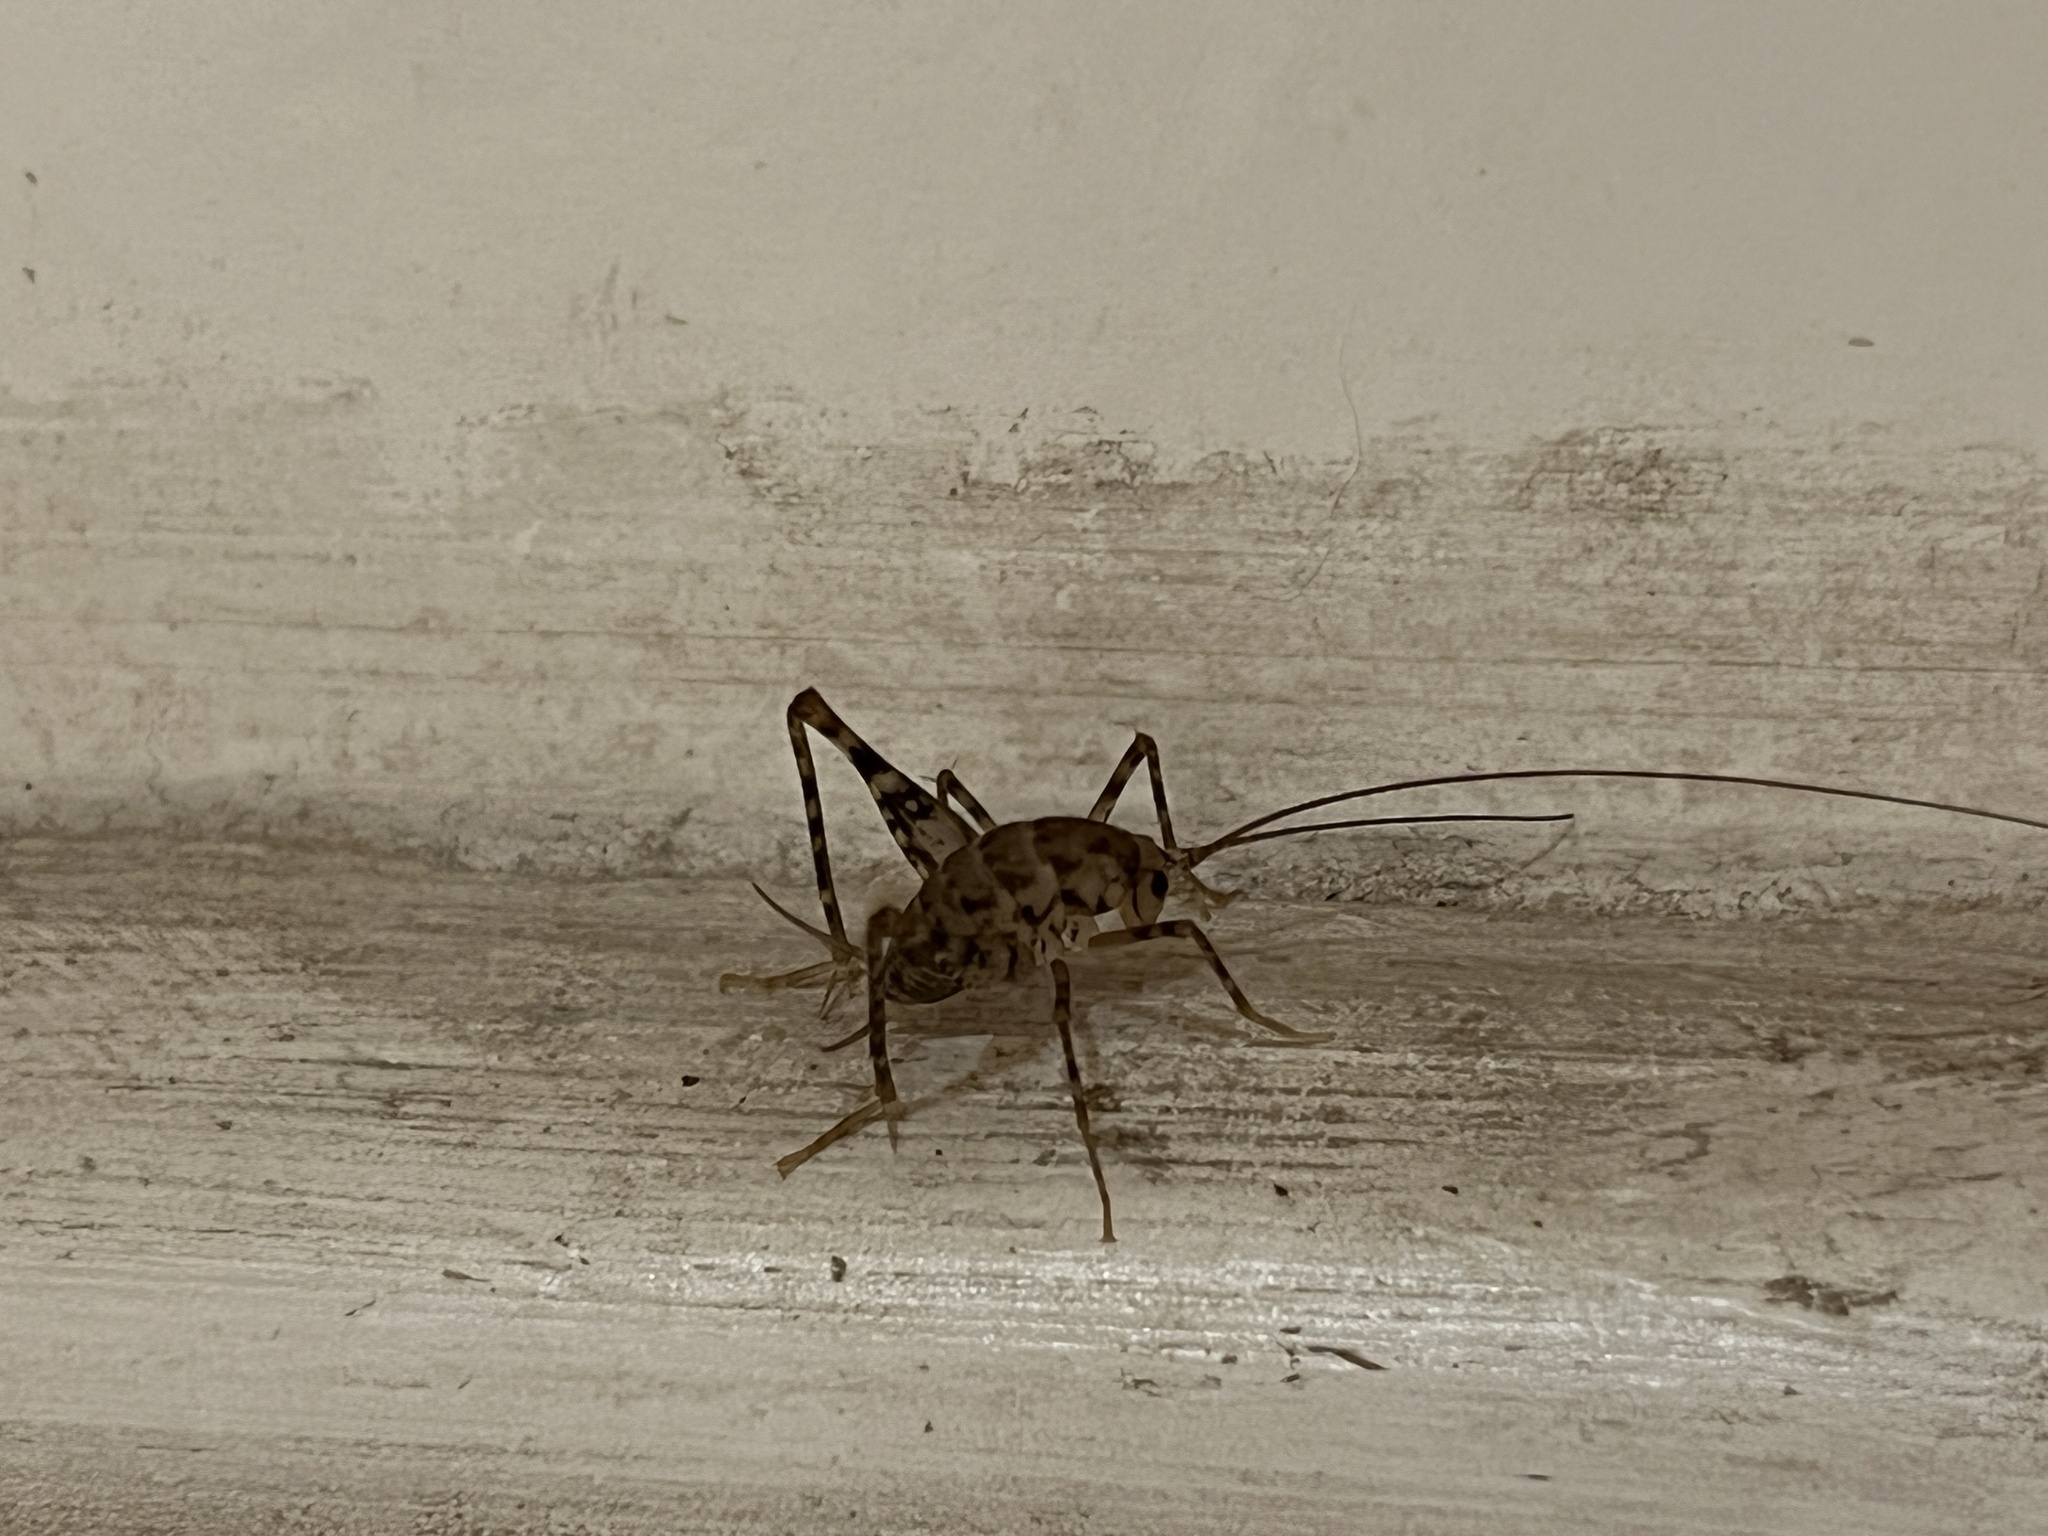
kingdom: Animalia
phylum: Arthropoda
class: Insecta
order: Orthoptera
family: Rhaphidophoridae
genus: Tachycines
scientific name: Tachycines asynamorus
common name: Greenhouse camel cricket
